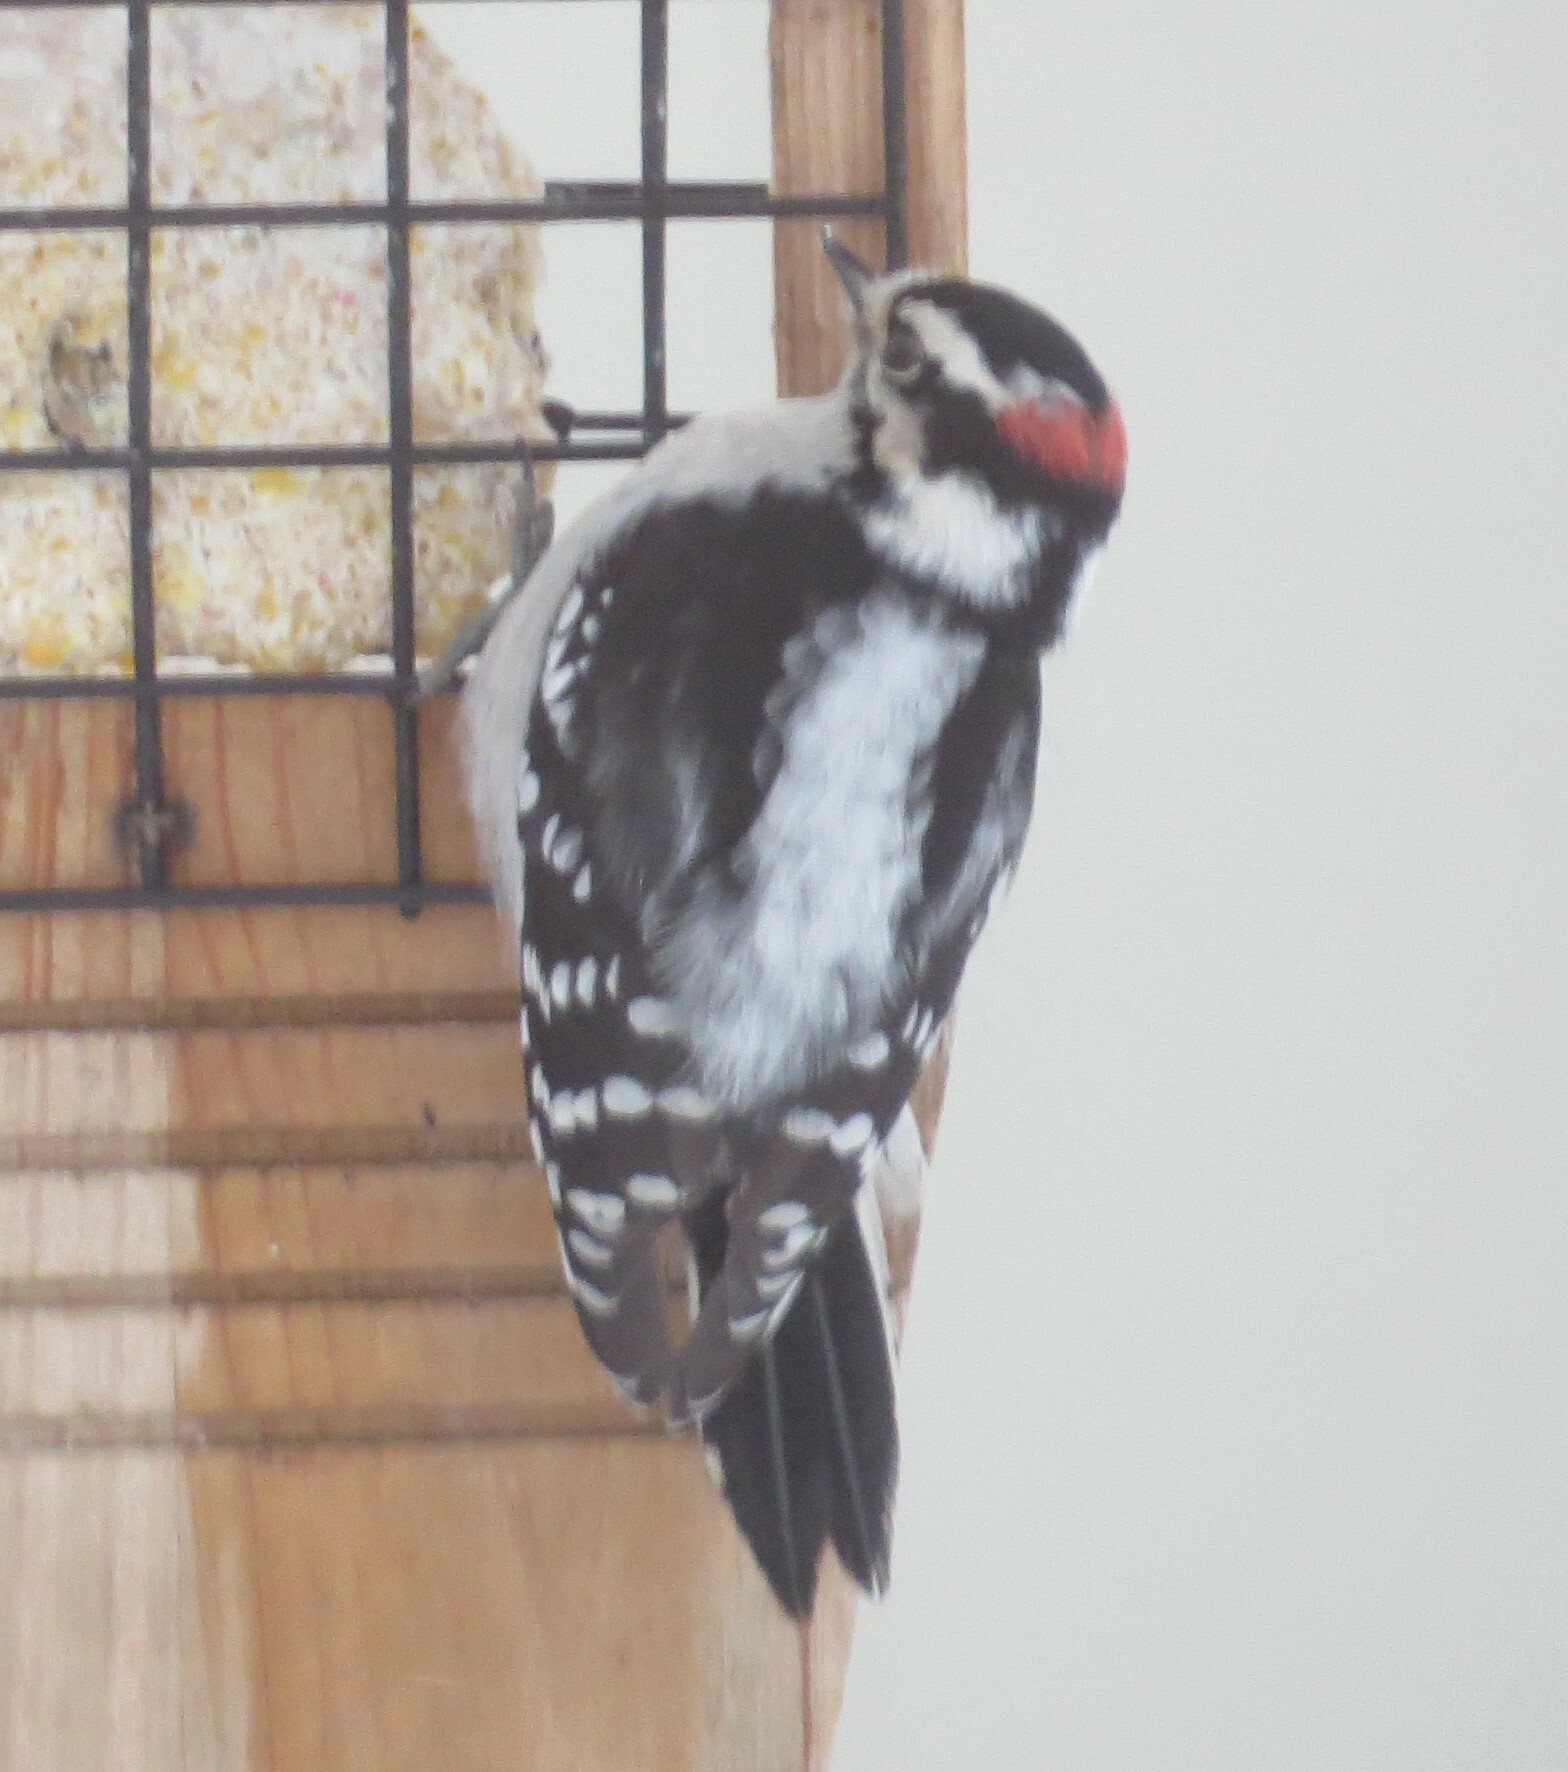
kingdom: Animalia
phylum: Chordata
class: Aves
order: Piciformes
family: Picidae
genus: Dryobates
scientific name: Dryobates pubescens
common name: Downy woodpecker
